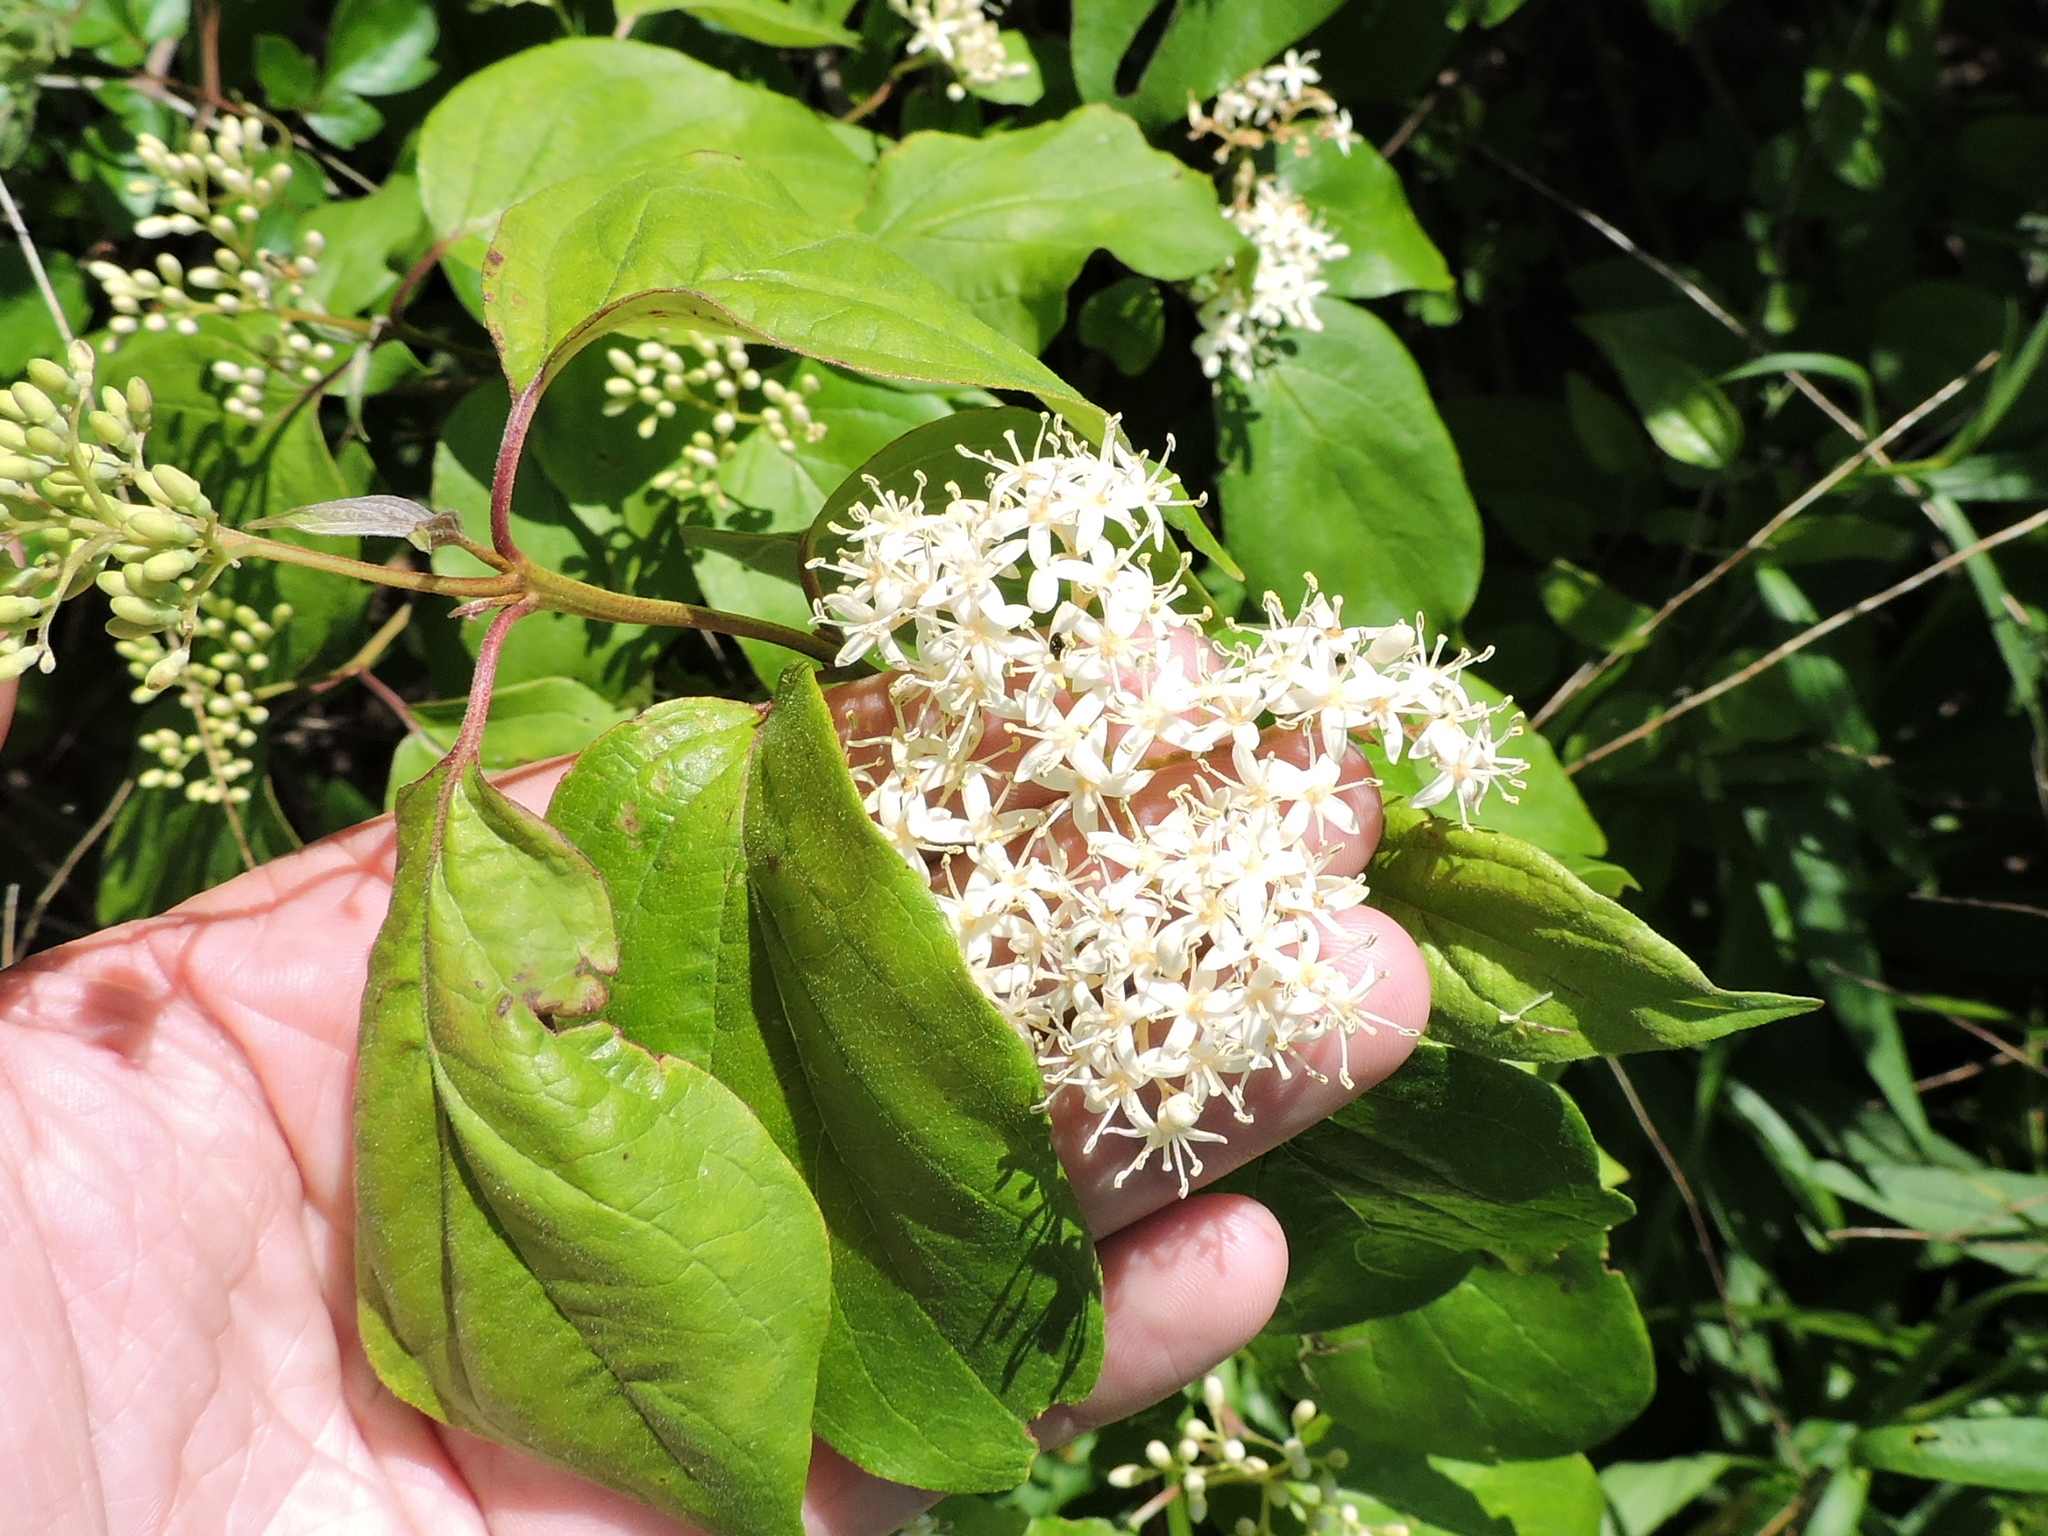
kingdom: Plantae
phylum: Tracheophyta
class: Magnoliopsida
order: Cornales
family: Cornaceae
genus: Cornus
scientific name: Cornus drummondii
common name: Rough-leaf dogwood
